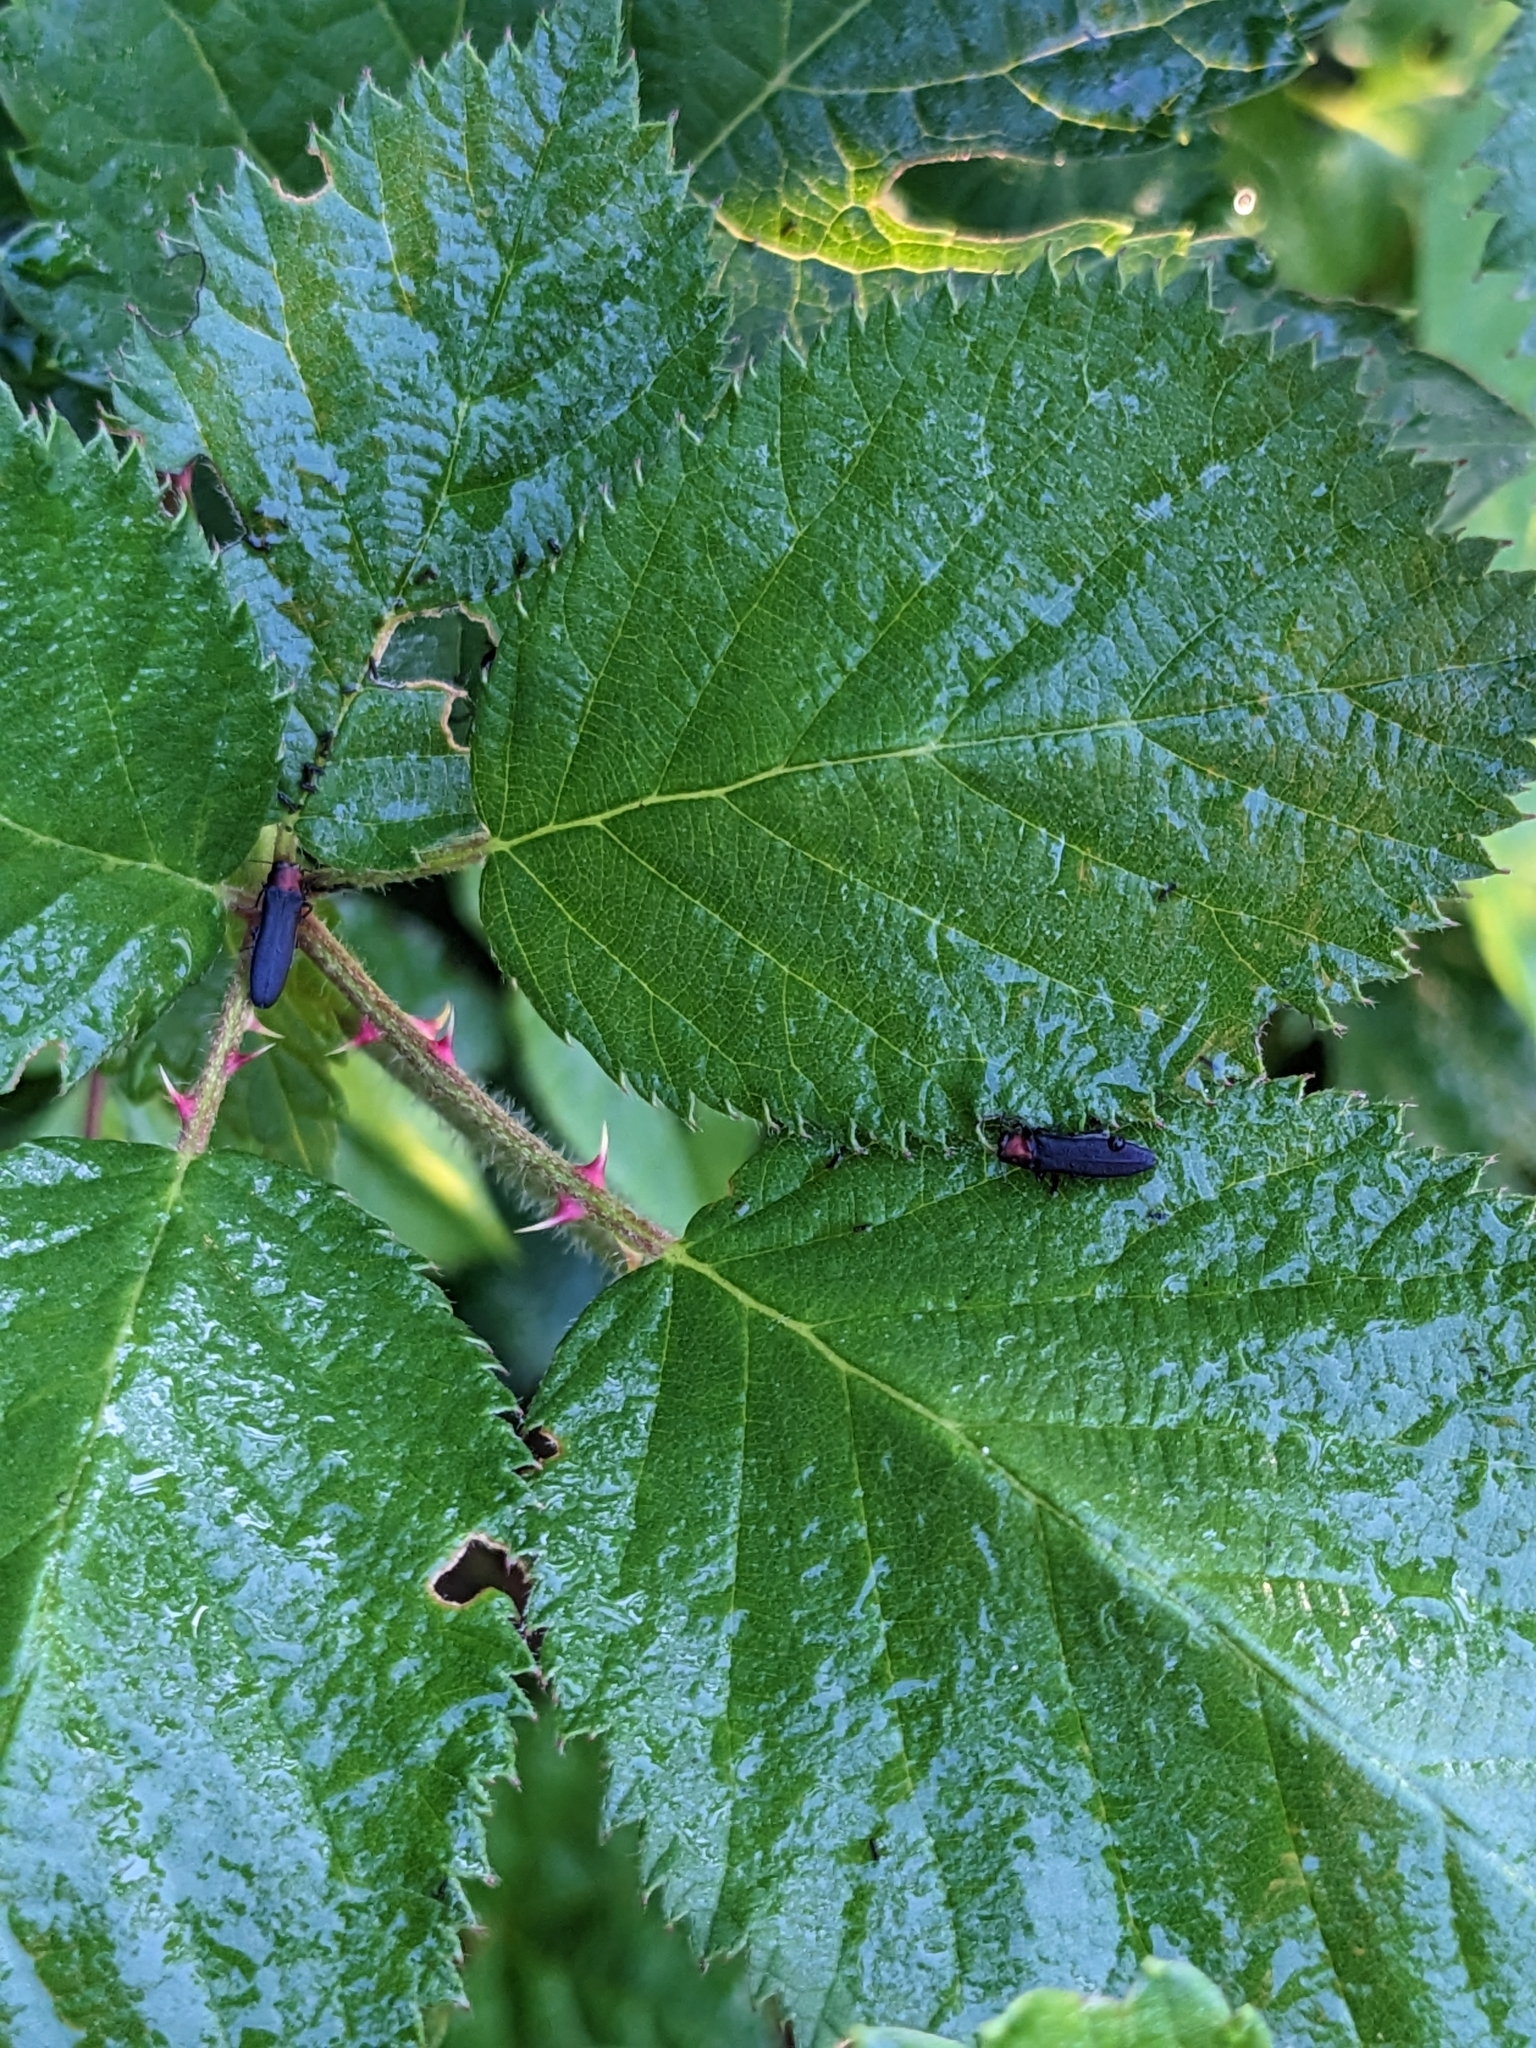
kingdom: Animalia
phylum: Arthropoda
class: Insecta
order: Coleoptera
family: Buprestidae
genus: Agrilus
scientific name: Agrilus ruficollis
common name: Red-necked cane borer beetle
